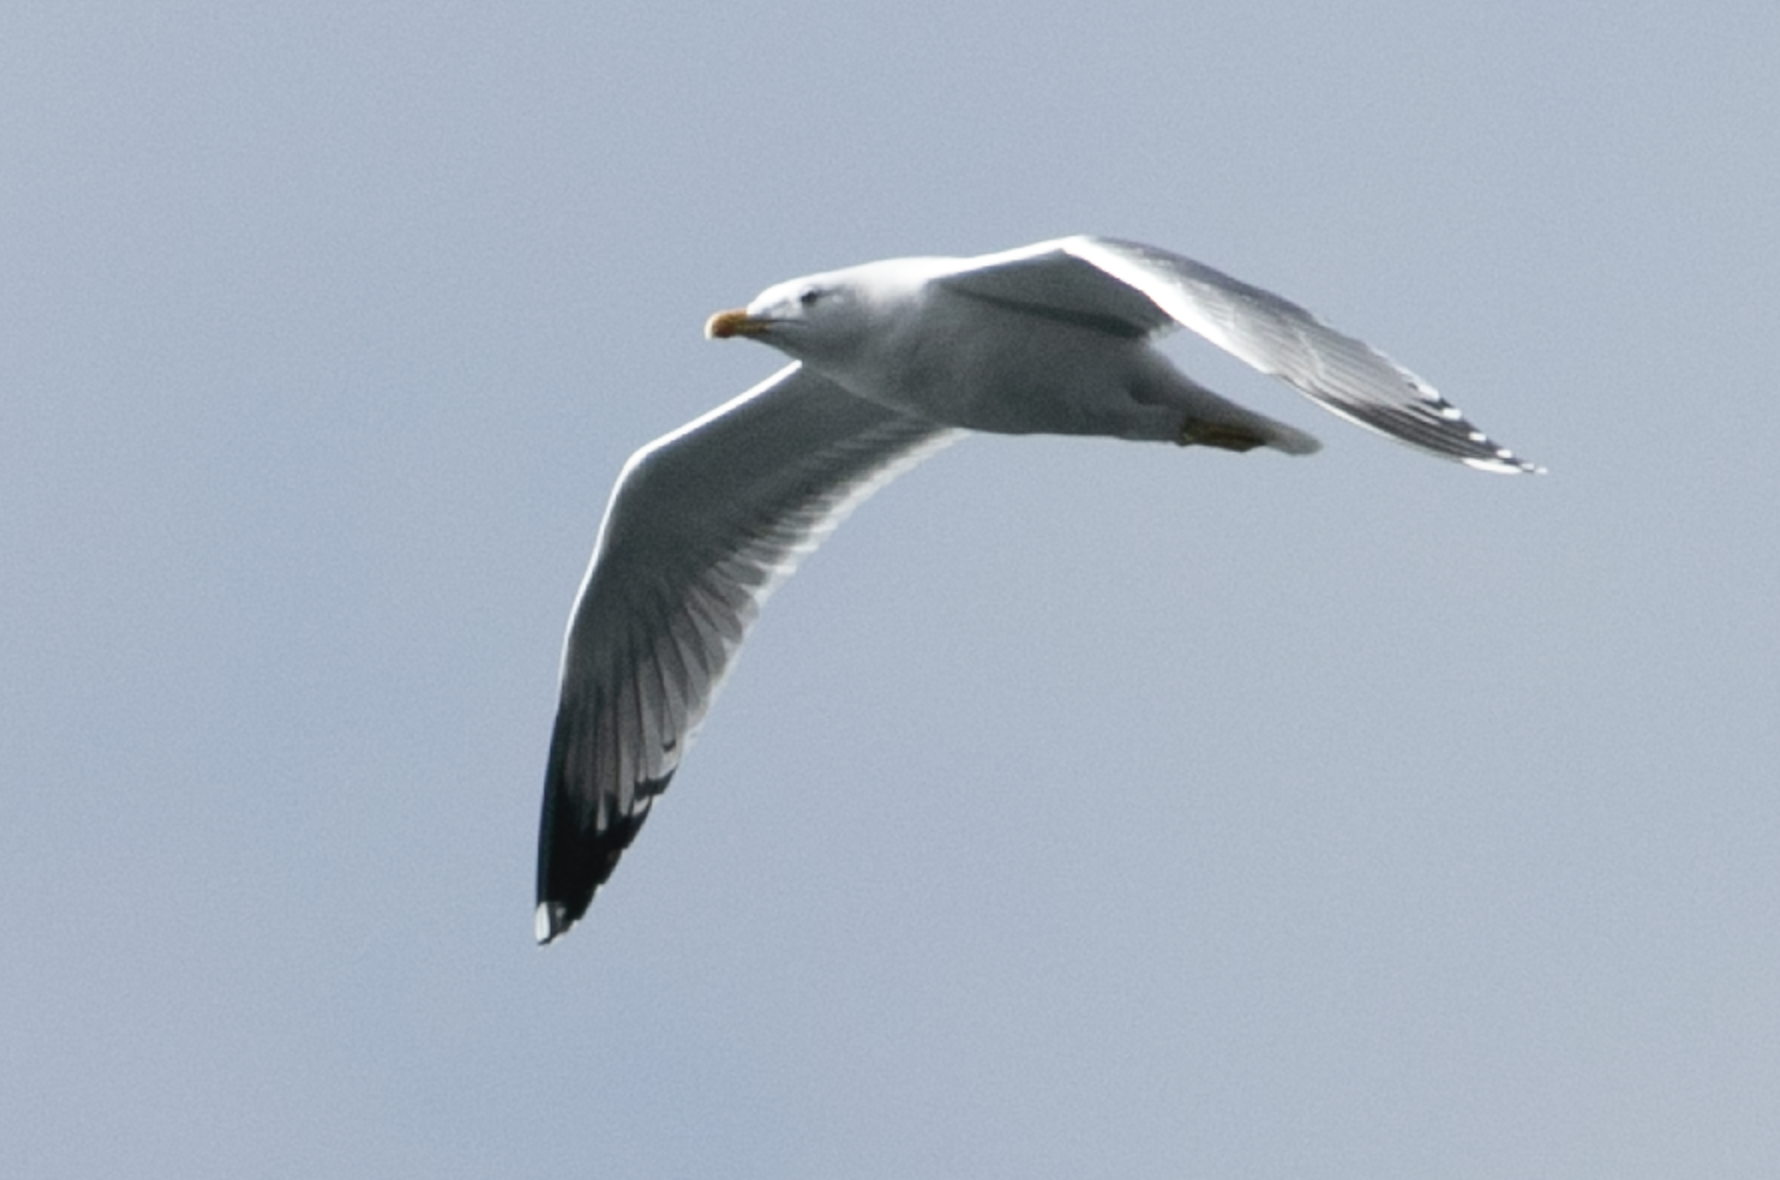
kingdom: Animalia
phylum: Chordata
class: Aves
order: Charadriiformes
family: Laridae
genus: Larus
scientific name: Larus michahellis
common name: Yellow-legged gull
